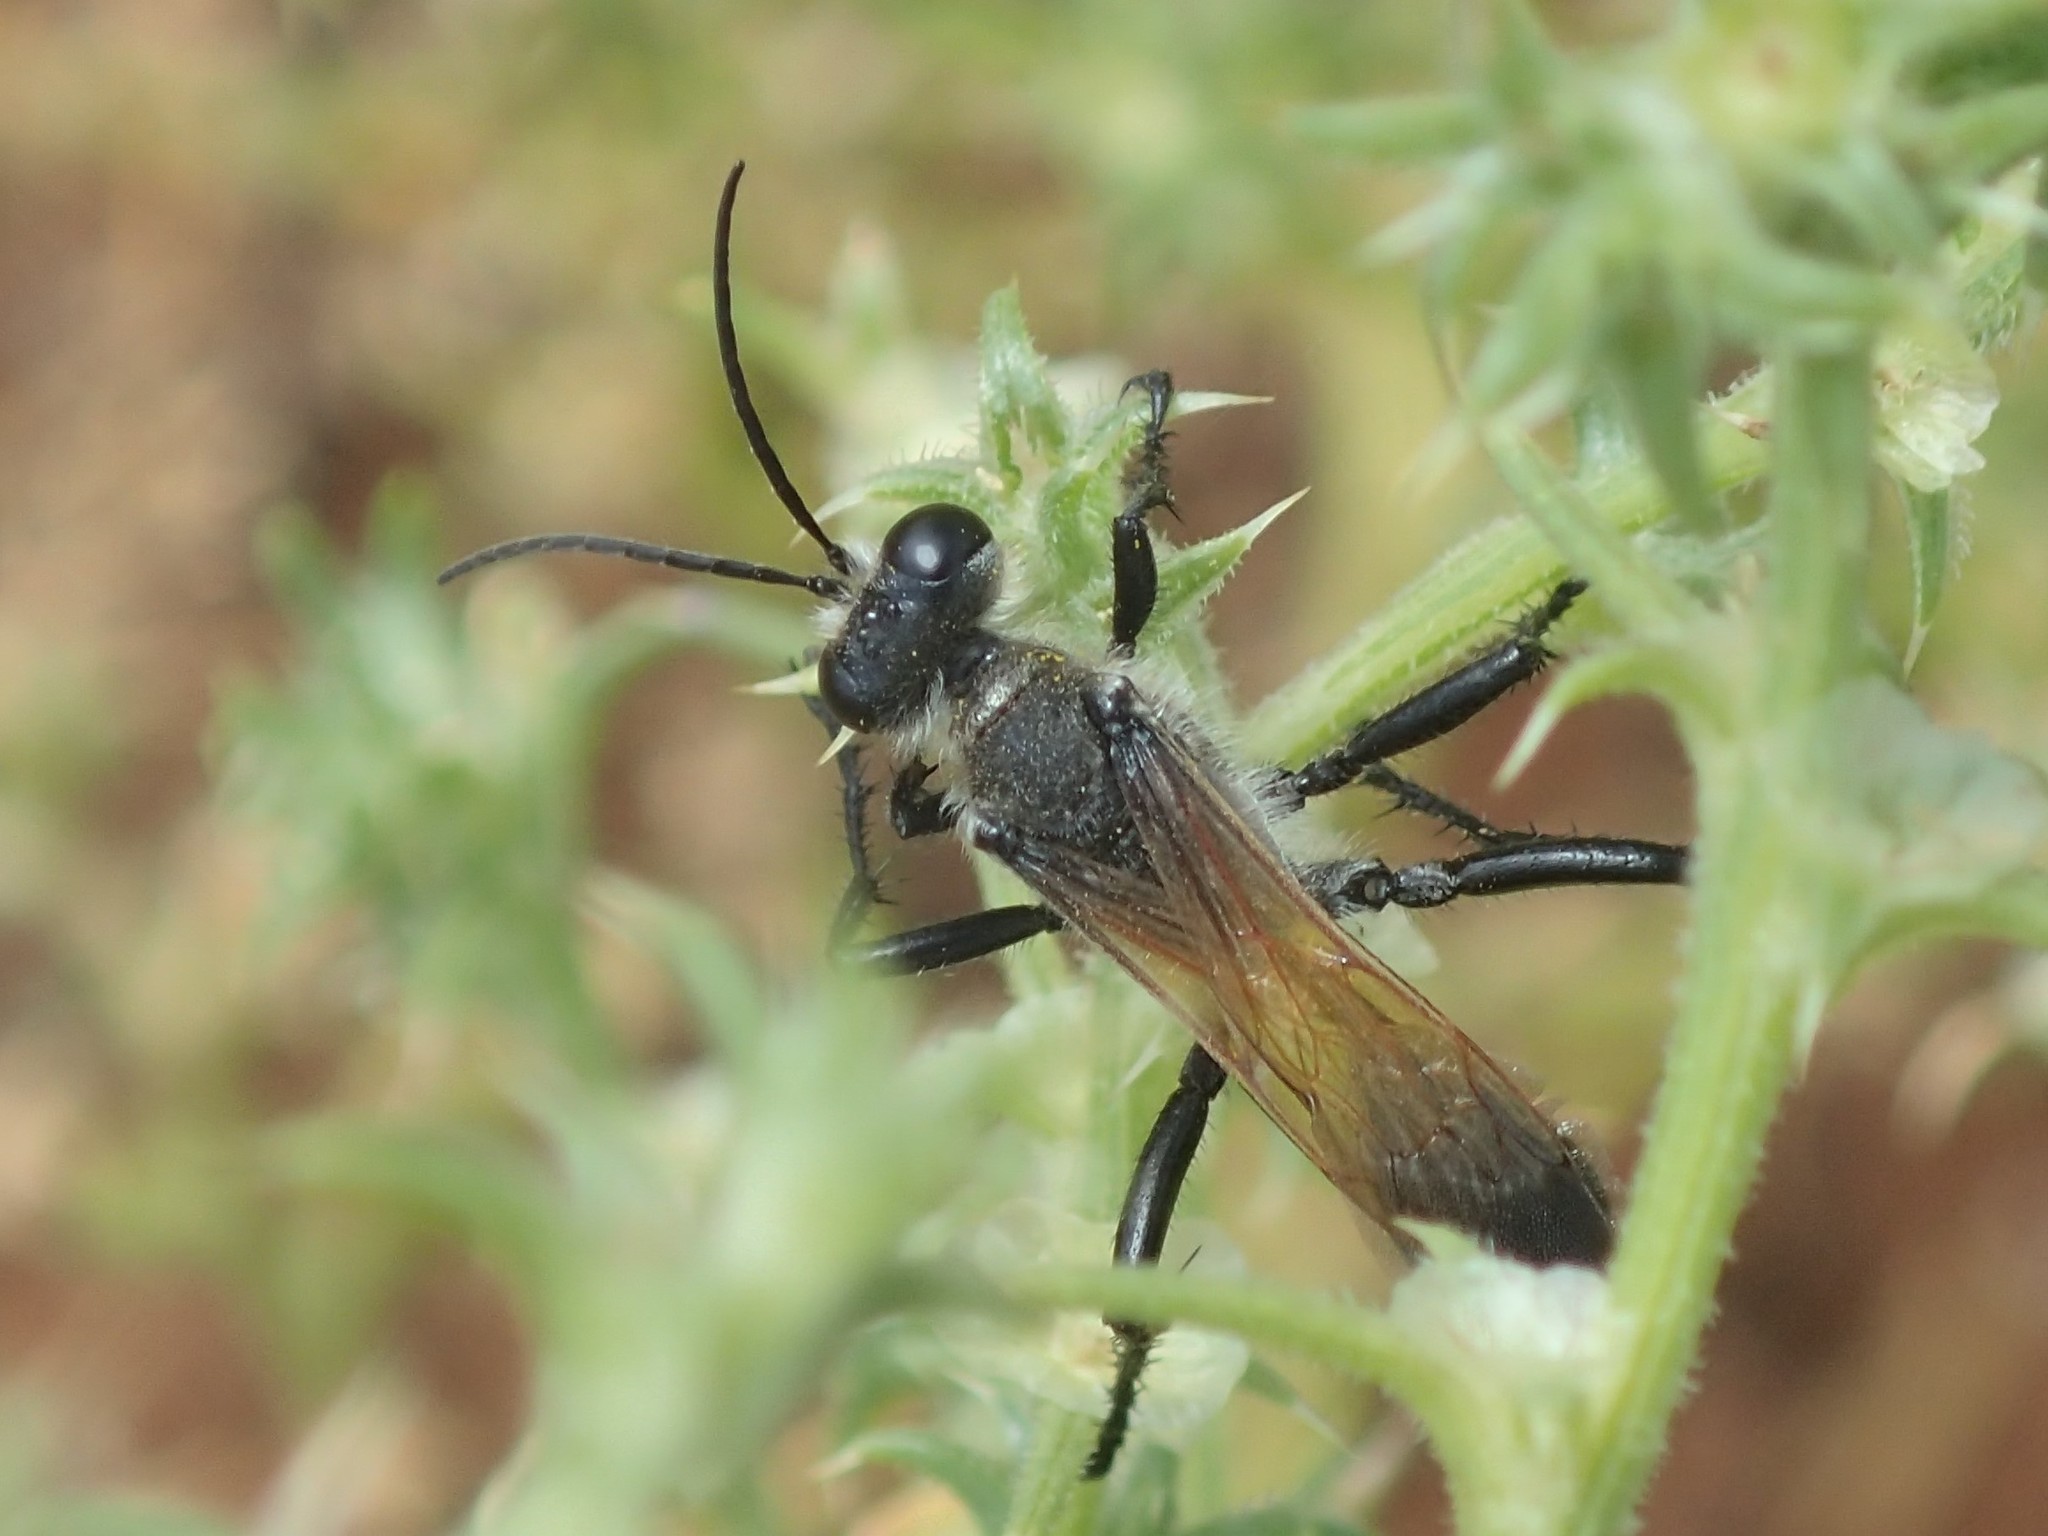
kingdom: Animalia
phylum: Arthropoda
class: Insecta
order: Hymenoptera
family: Sphecidae
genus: Prionyx
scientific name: Prionyx saevus
